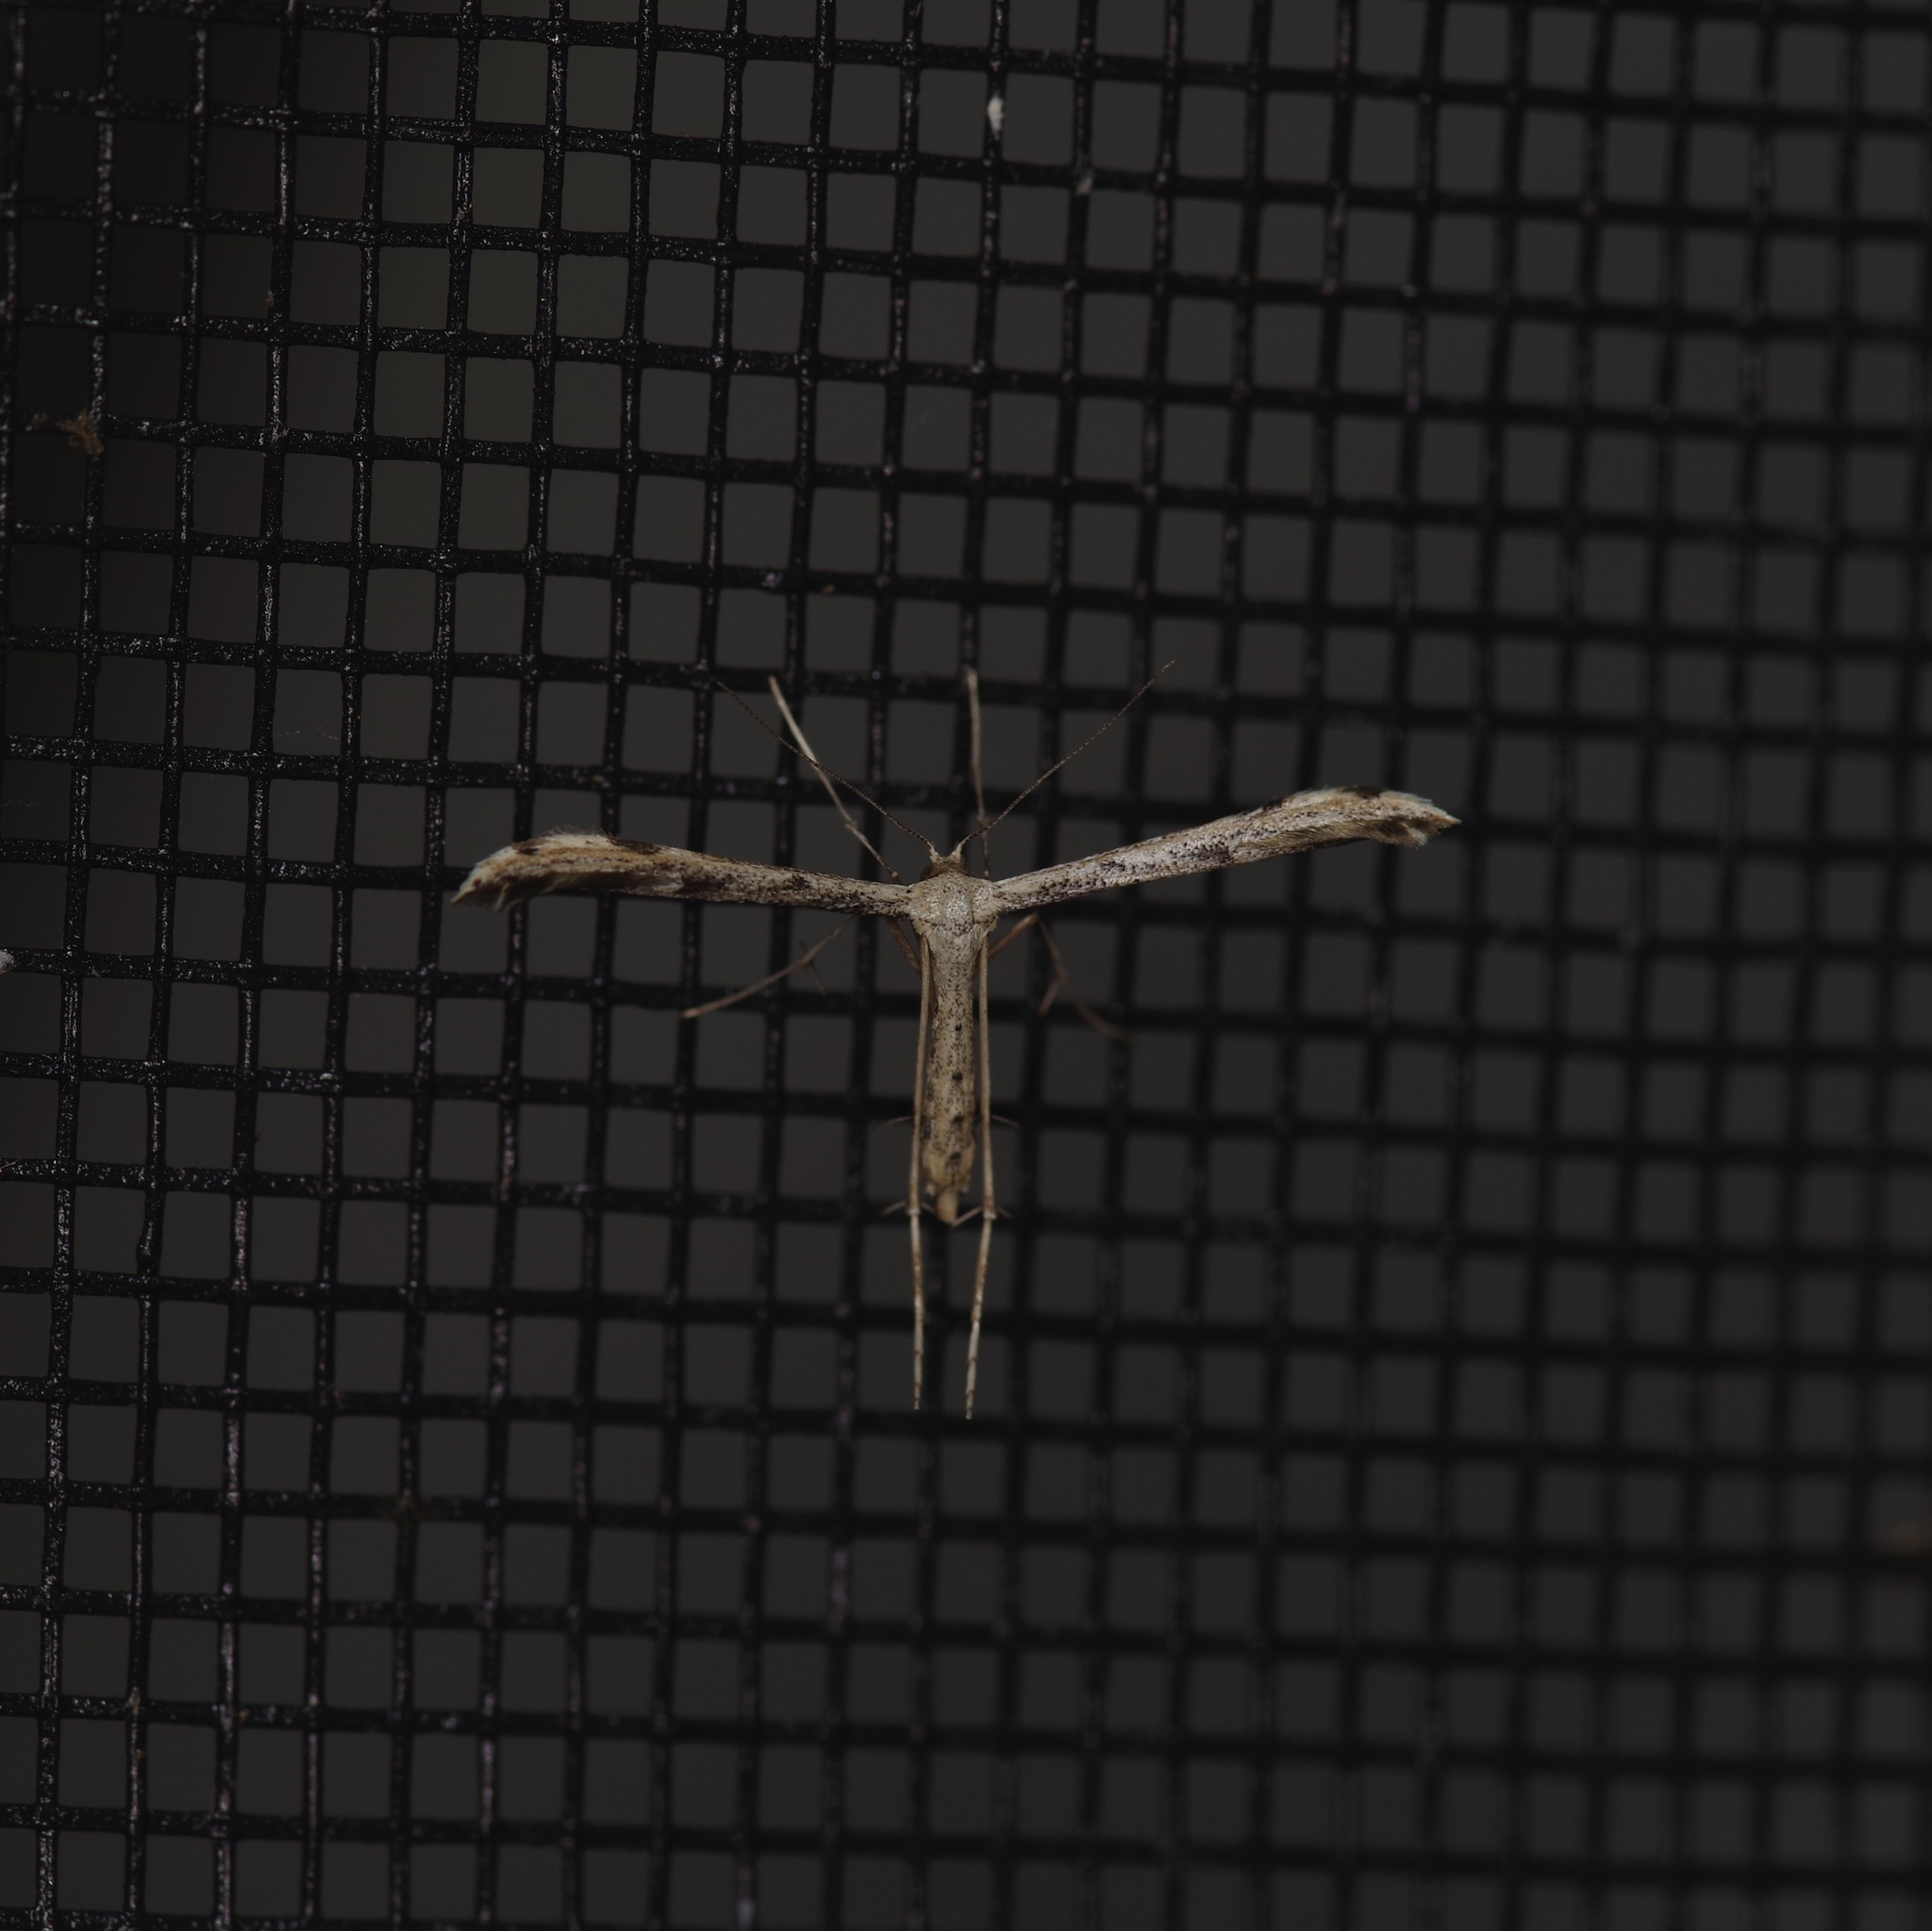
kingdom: Animalia
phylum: Arthropoda
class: Insecta
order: Lepidoptera
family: Pterophoridae
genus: Adaina
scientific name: Adaina ambrosiae
